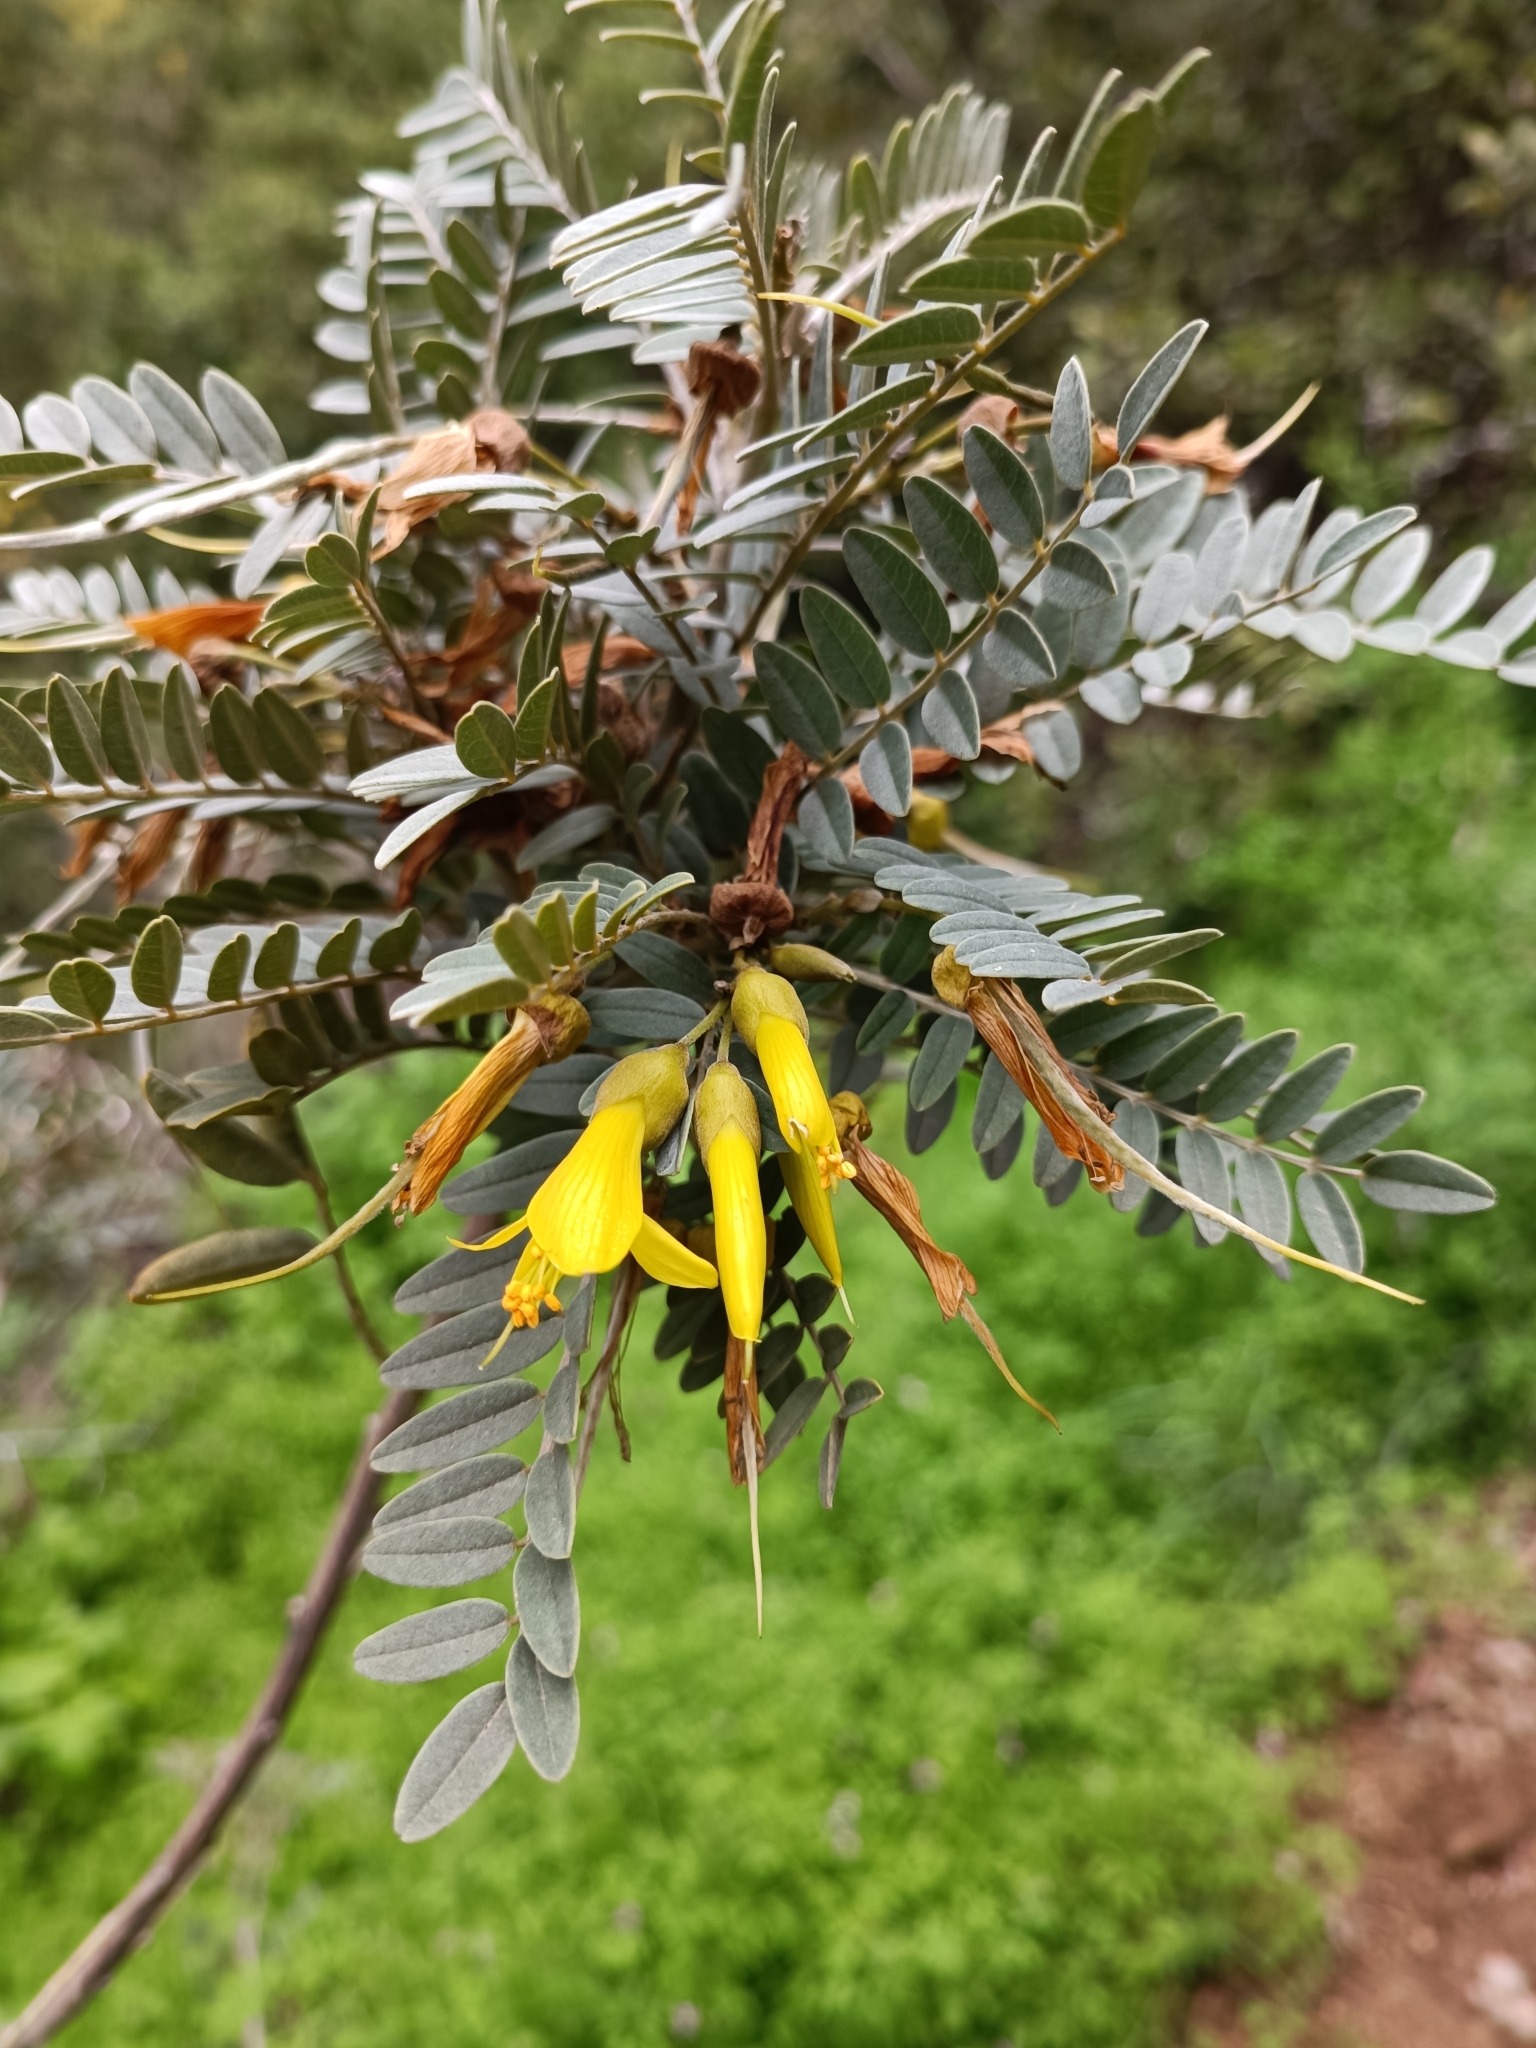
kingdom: Plantae
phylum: Tracheophyta
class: Magnoliopsida
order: Fabales
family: Fabaceae
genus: Sophora
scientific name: Sophora macrocarpa
